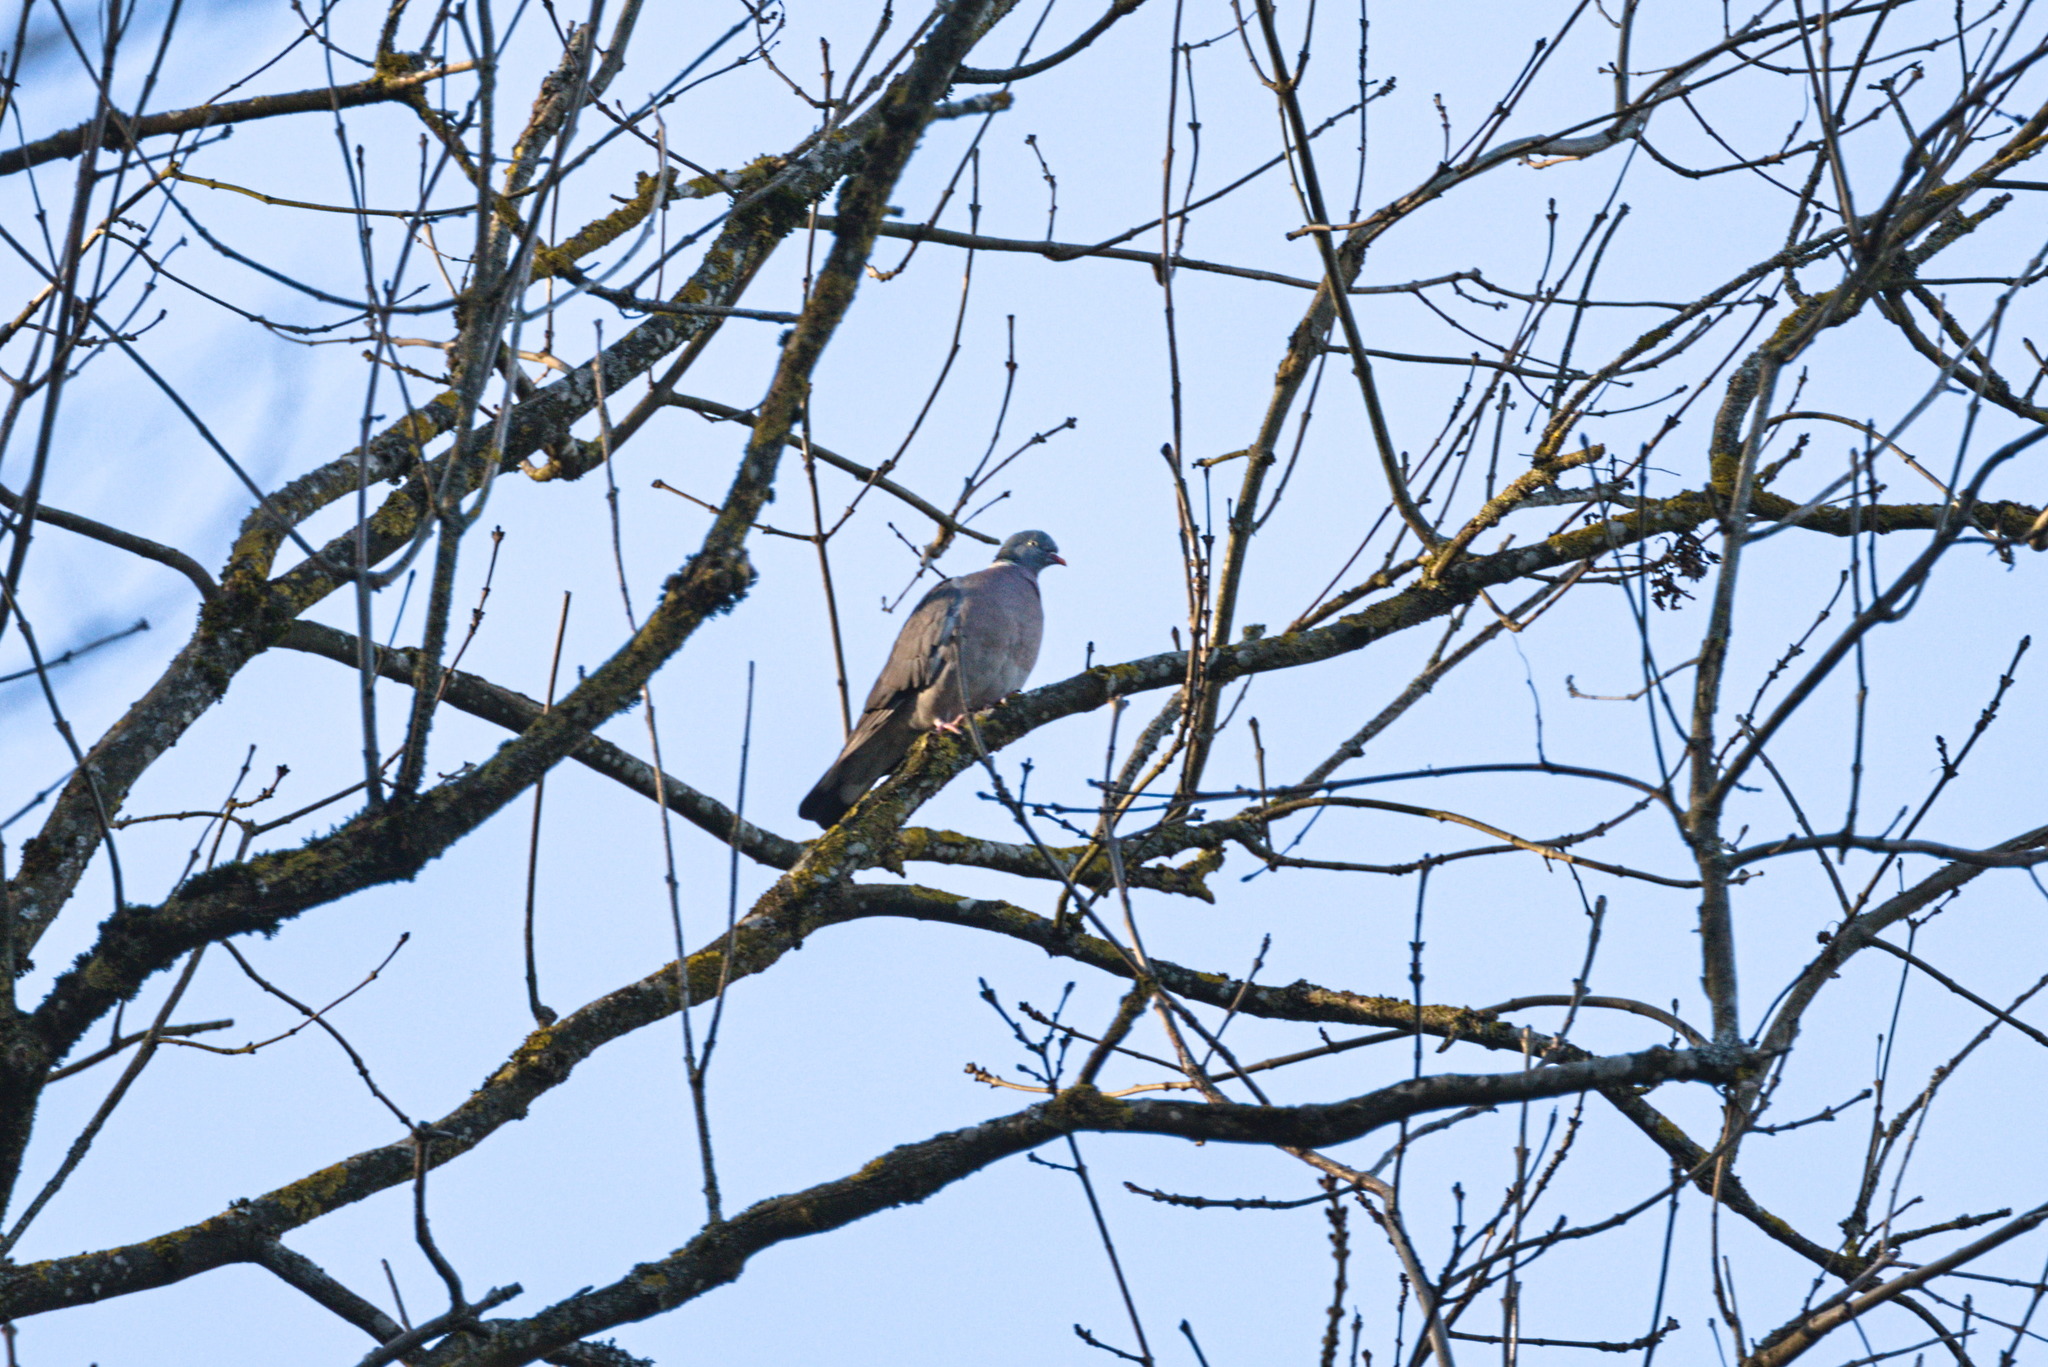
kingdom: Animalia
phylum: Chordata
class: Aves
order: Columbiformes
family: Columbidae
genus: Columba
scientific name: Columba palumbus
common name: Common wood pigeon
